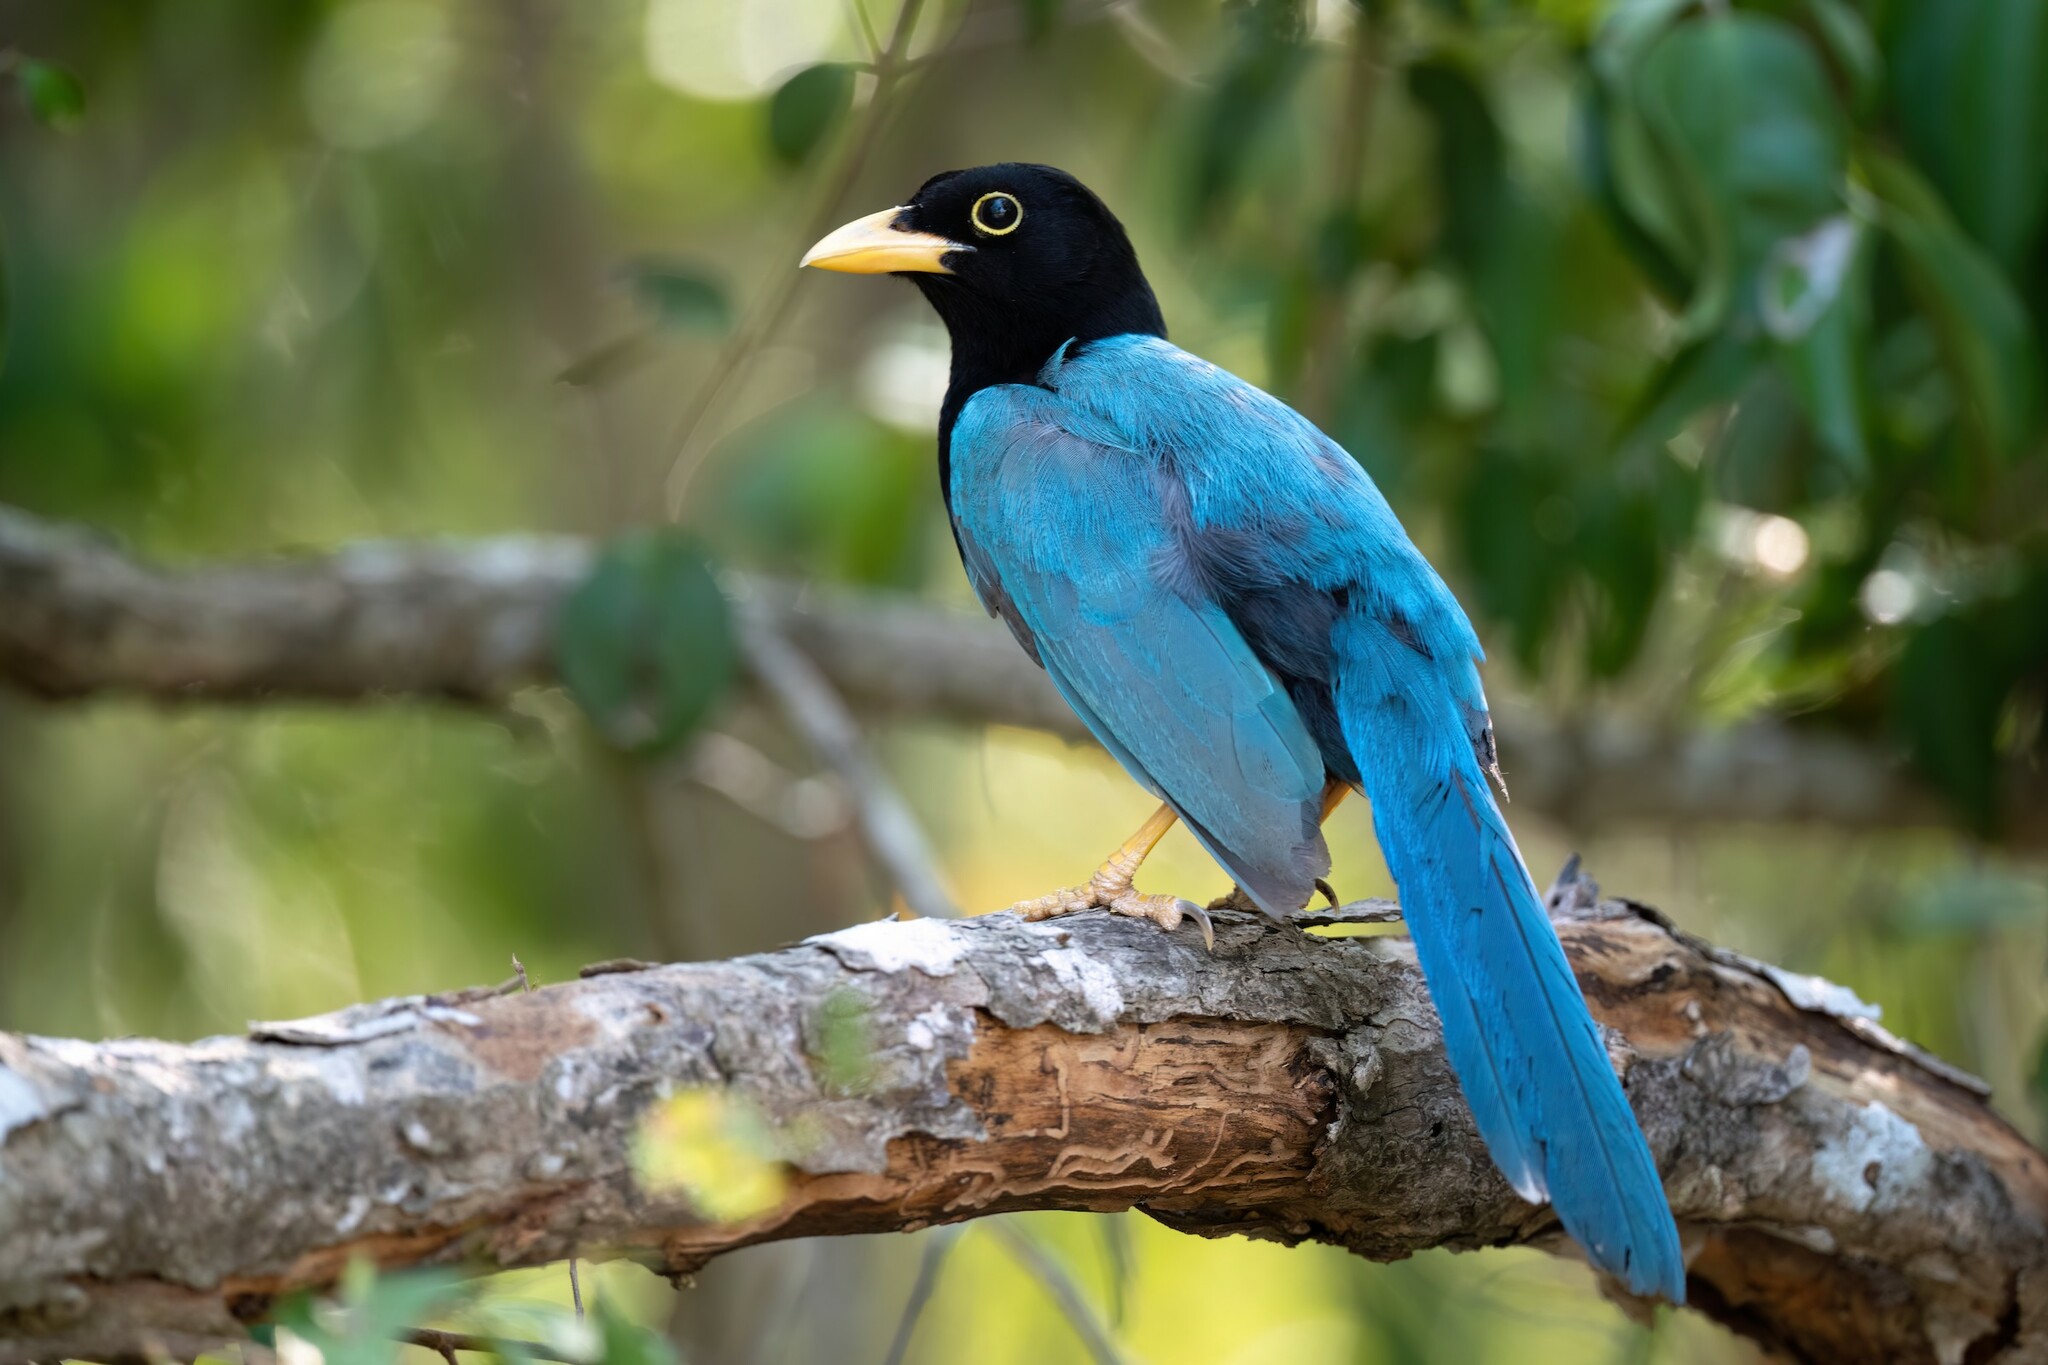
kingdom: Animalia
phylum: Chordata
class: Aves
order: Passeriformes
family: Corvidae
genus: Cyanocorax
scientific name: Cyanocorax yucatanicus
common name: Yucatan jay
